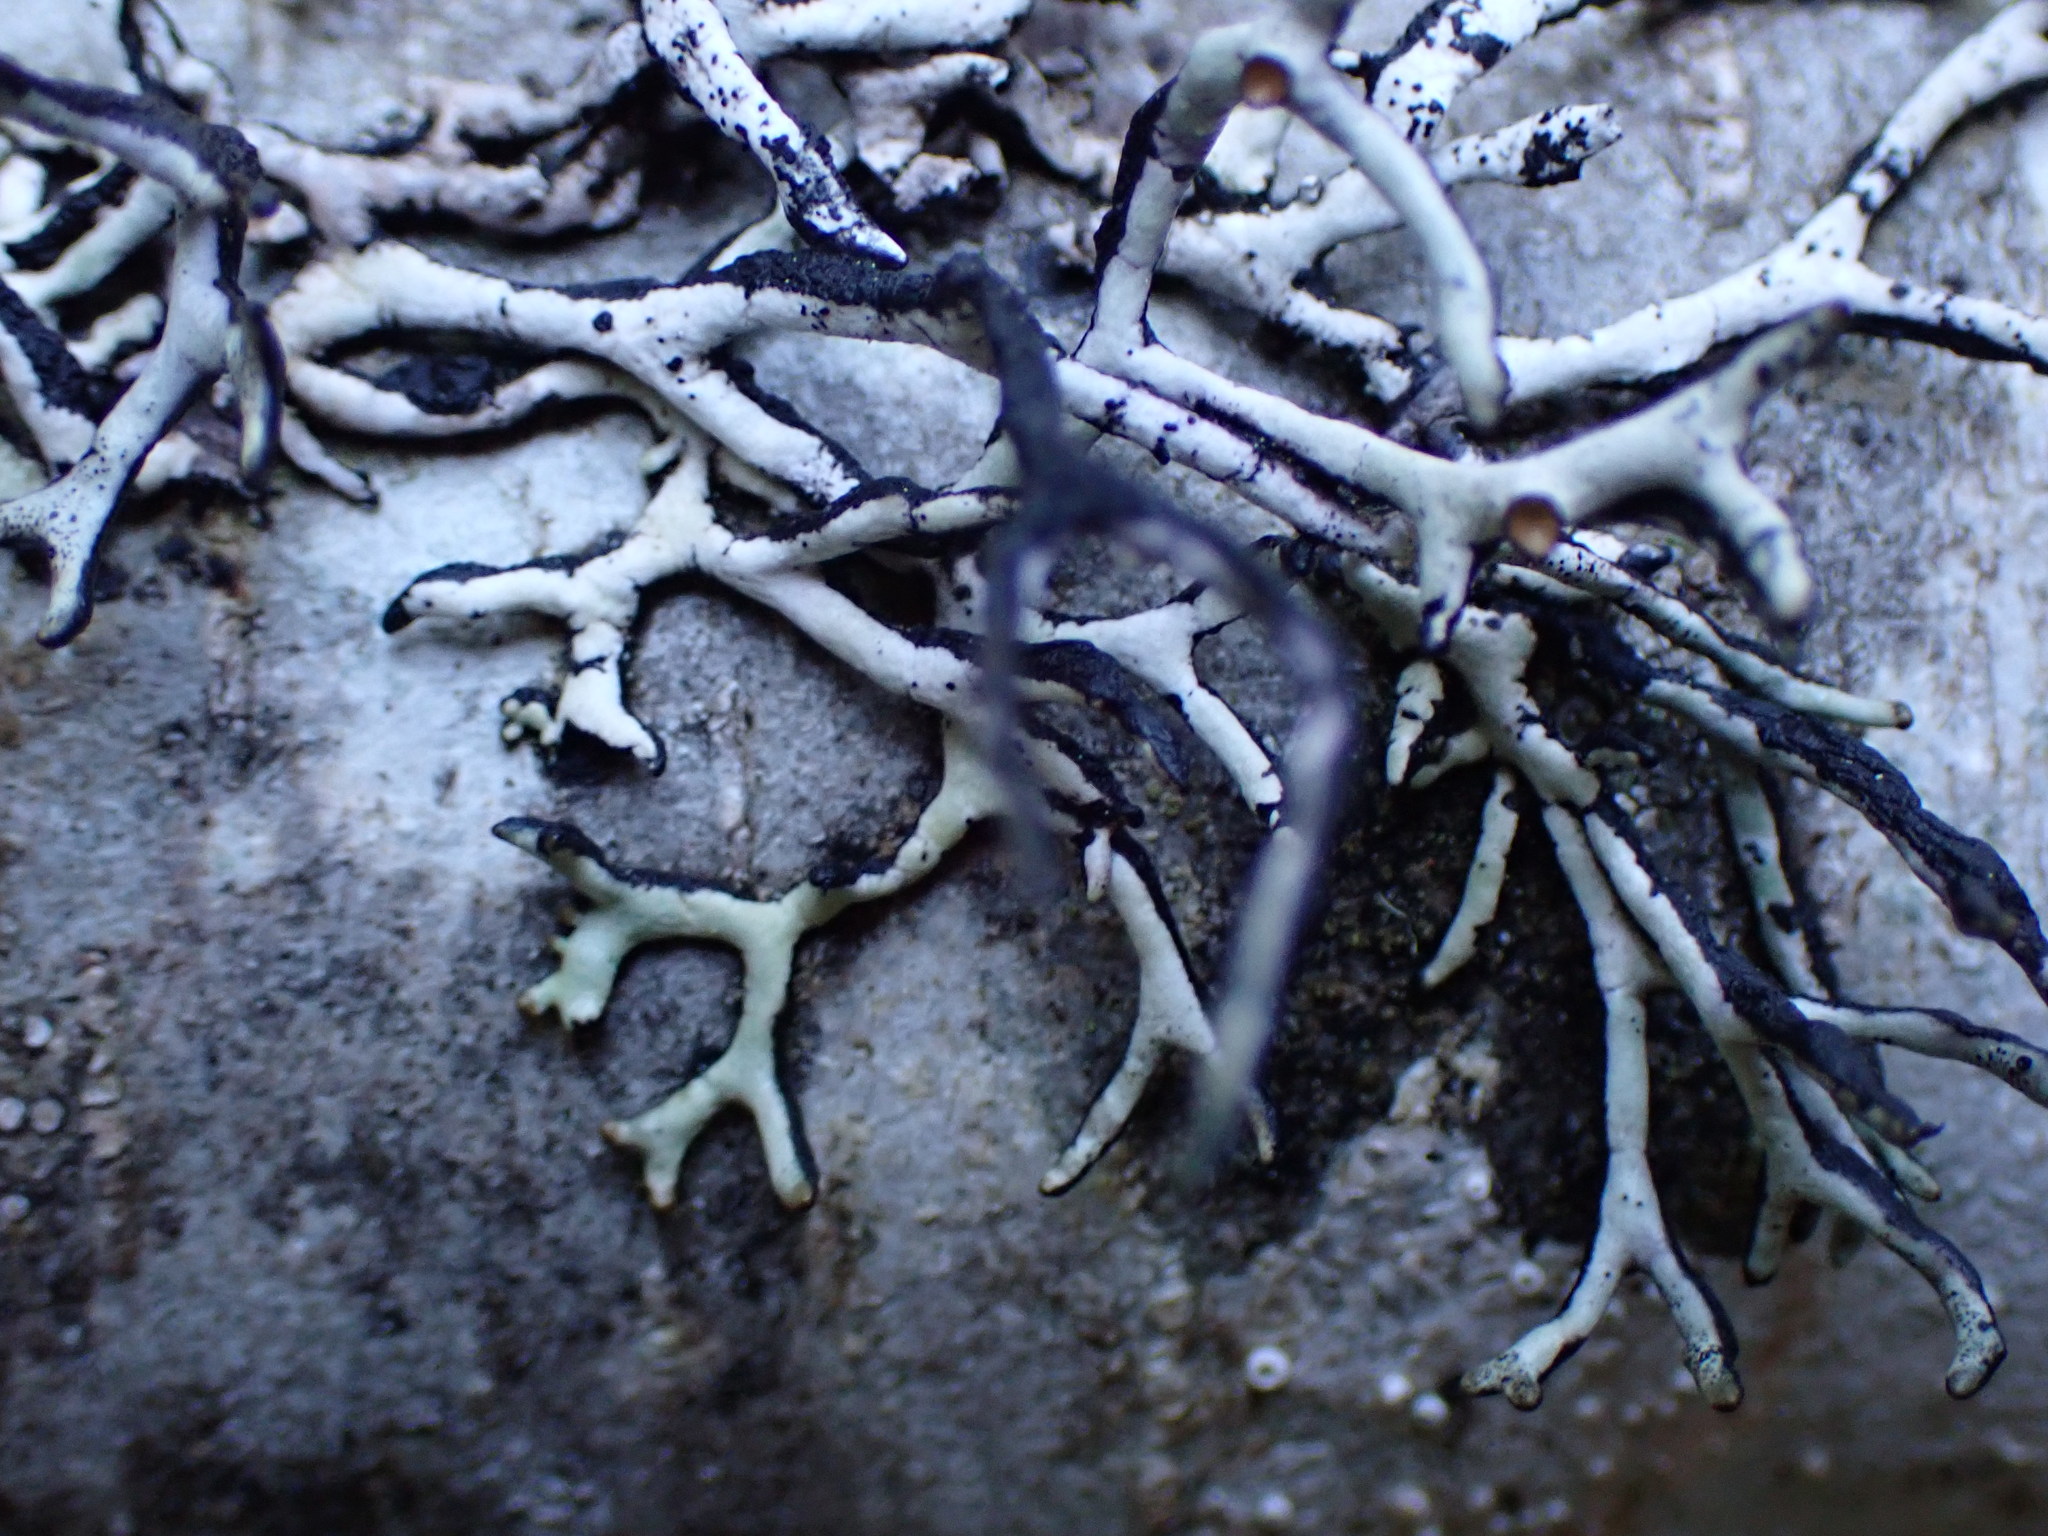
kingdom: Fungi
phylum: Ascomycota
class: Lecanoromycetes
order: Lecanorales
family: Parmeliaceae
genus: Hypogymnia
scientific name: Hypogymnia imshaugii
